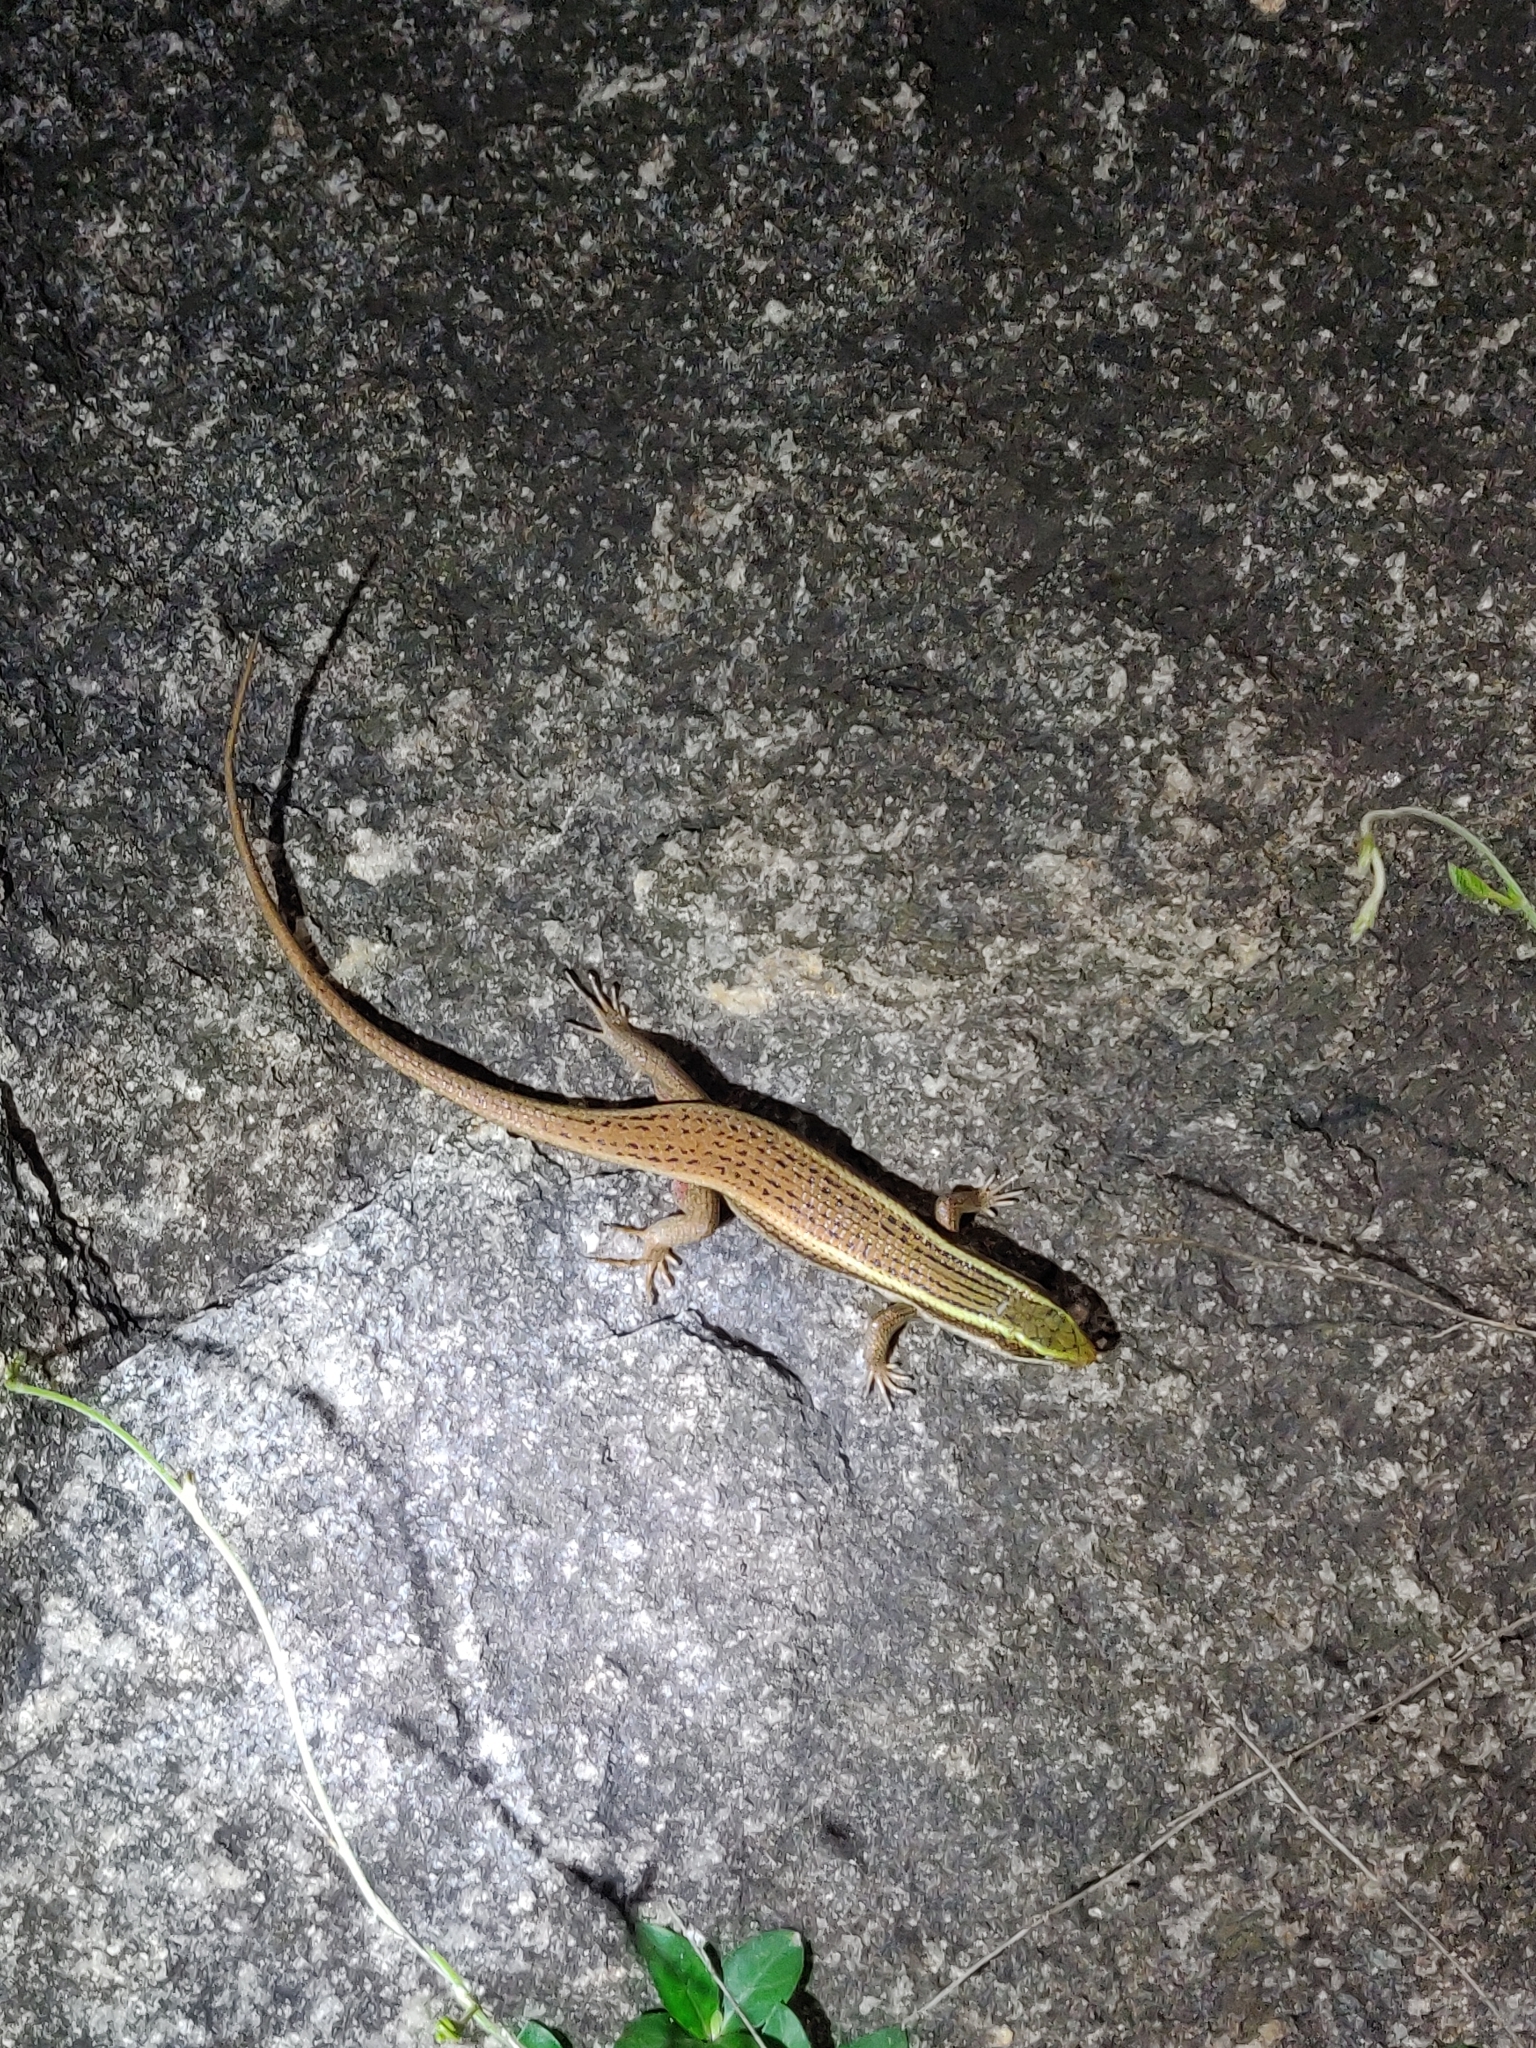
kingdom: Animalia
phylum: Chordata
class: Squamata
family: Scincidae
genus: Eutropis
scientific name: Eutropis carinata
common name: Keeled indian mabuya
